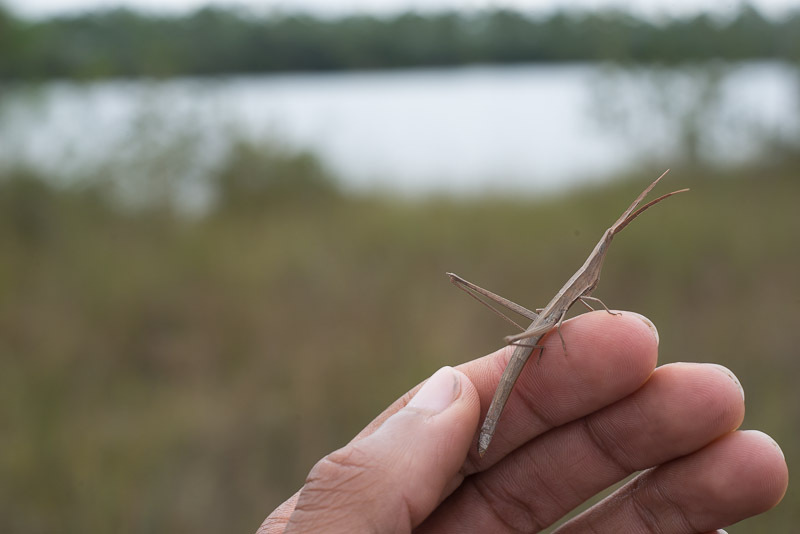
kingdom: Animalia
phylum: Arthropoda
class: Insecta
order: Orthoptera
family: Acrididae
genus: Achurum
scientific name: Achurum carinatum
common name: Long-headed toothpick grasshopper
